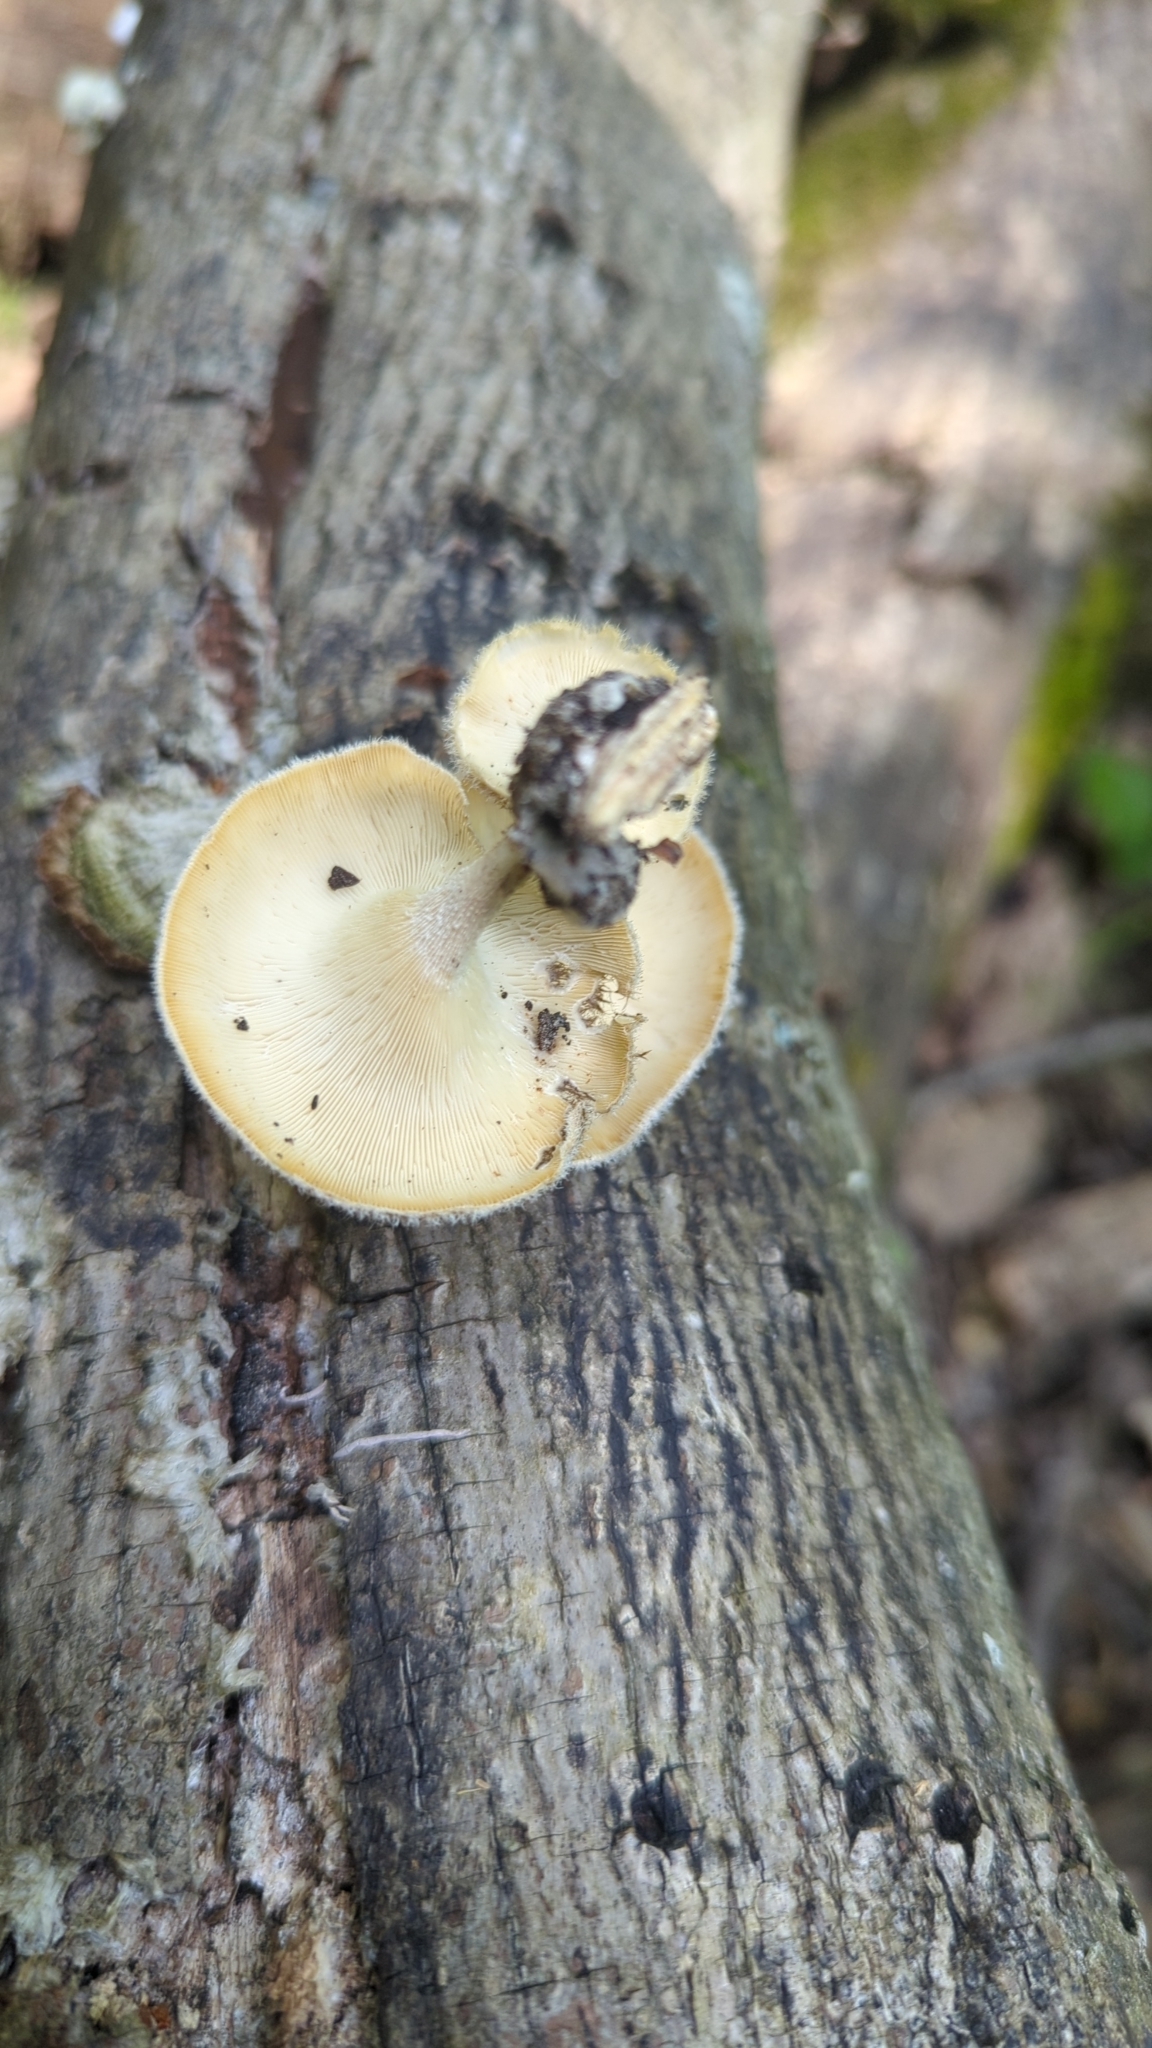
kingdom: Fungi
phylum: Basidiomycota
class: Agaricomycetes
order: Polyporales
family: Polyporaceae
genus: Lentinus
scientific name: Lentinus crinitus
